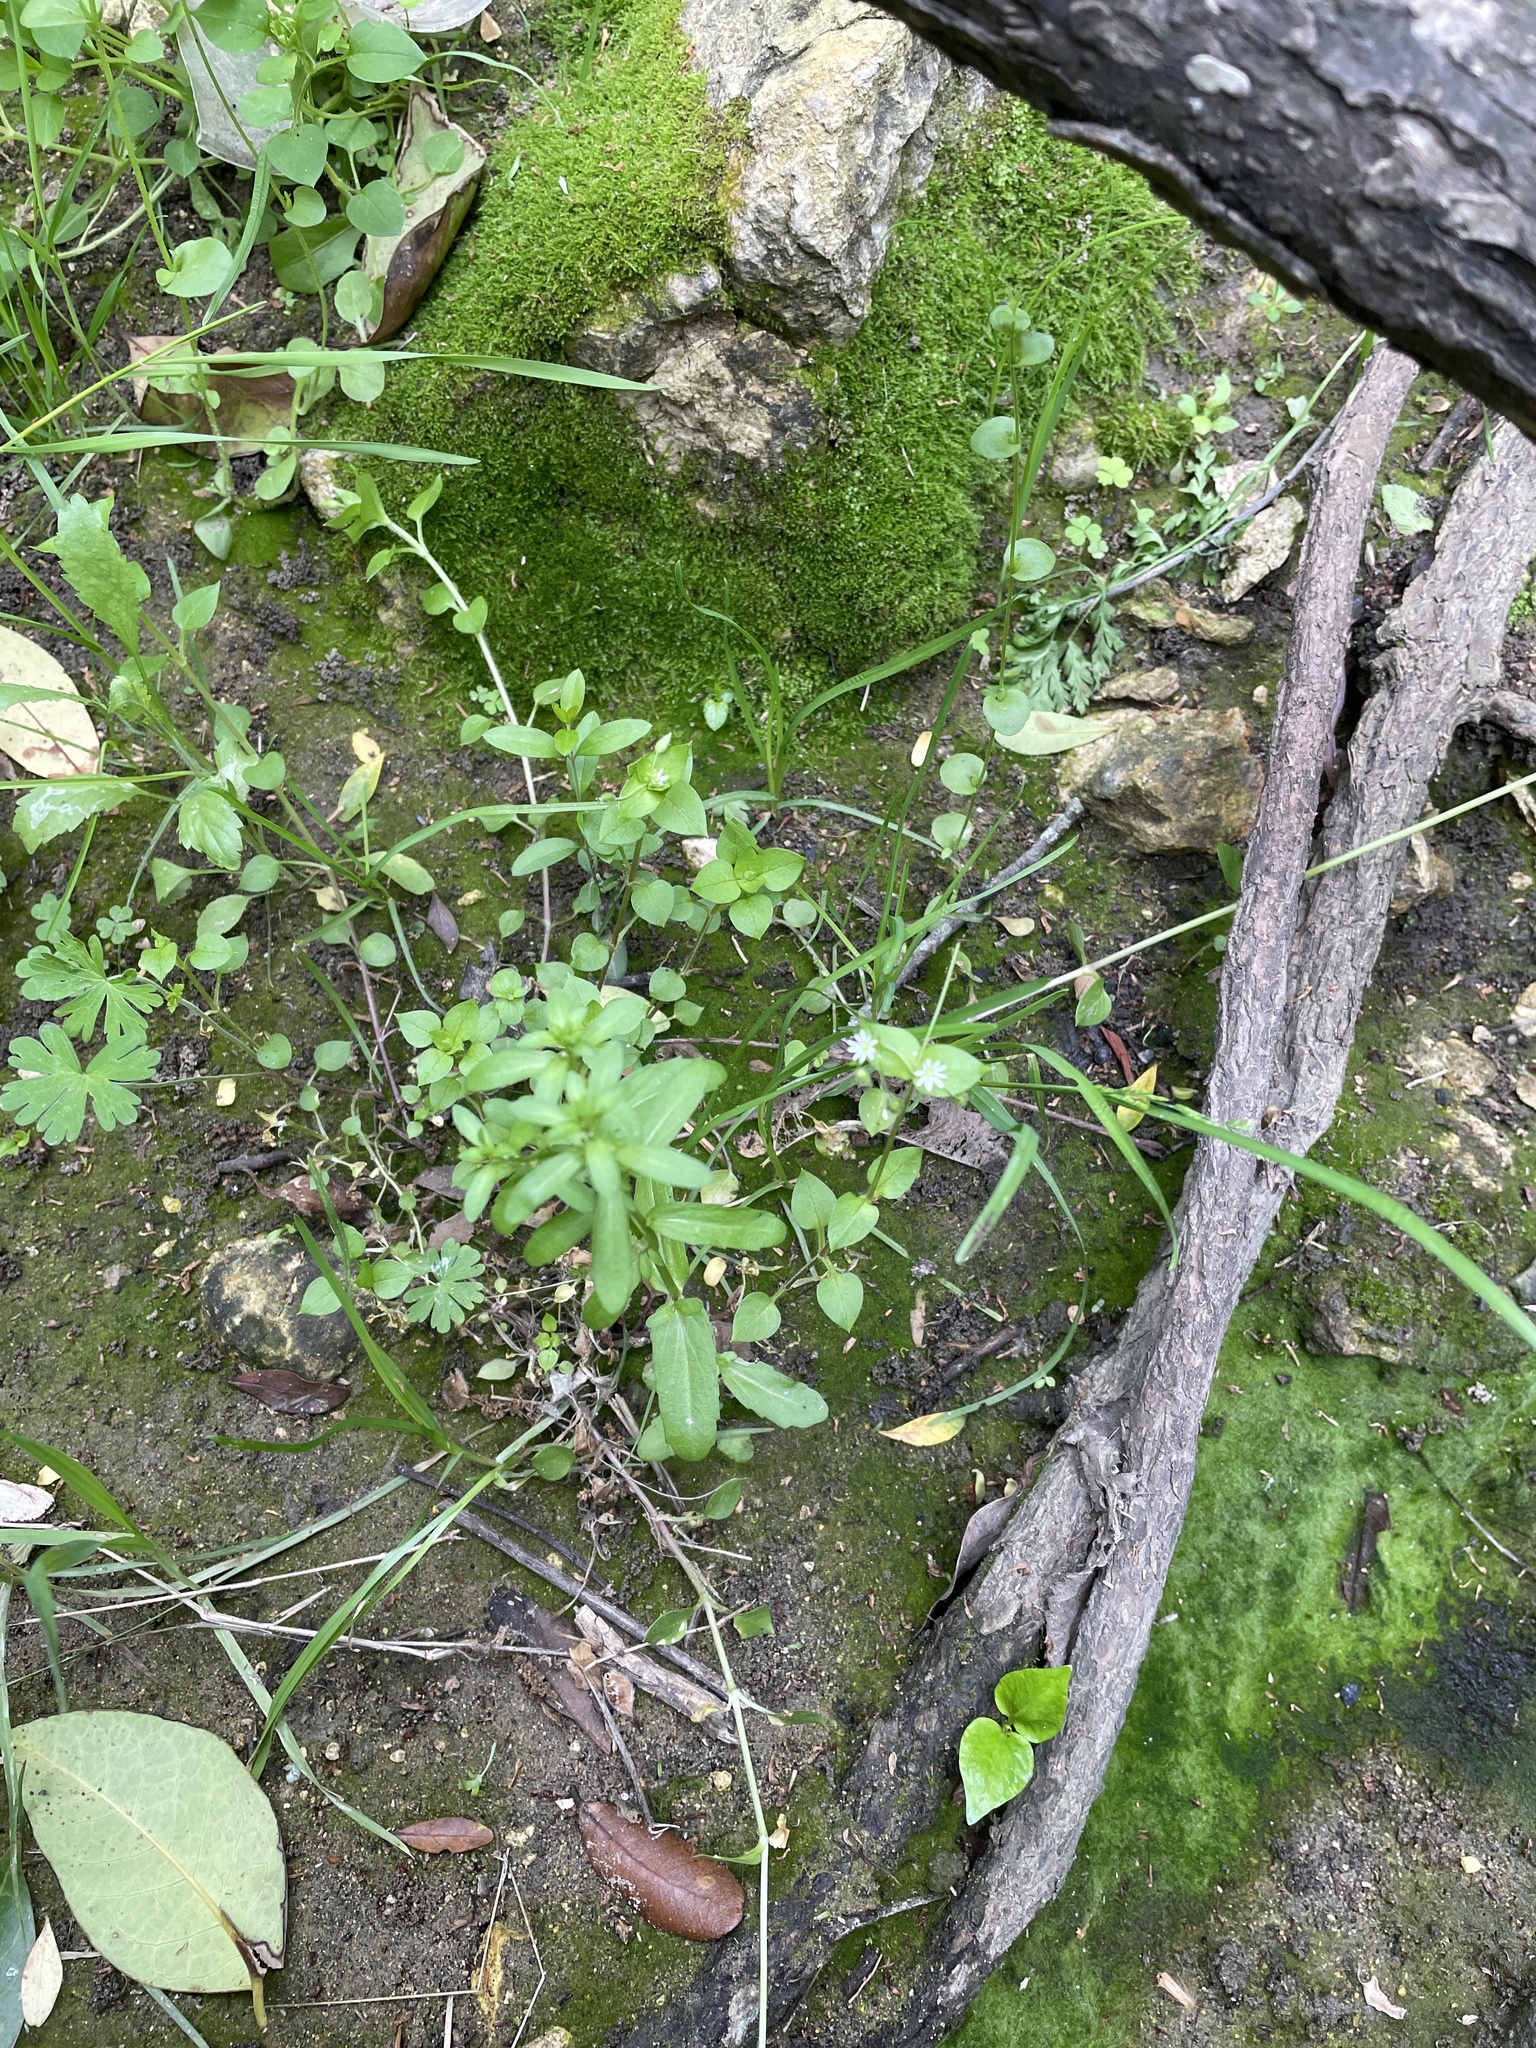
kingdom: Plantae
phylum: Tracheophyta
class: Magnoliopsida
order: Caryophyllales
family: Caryophyllaceae
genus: Stellaria
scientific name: Stellaria media
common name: Common chickweed
